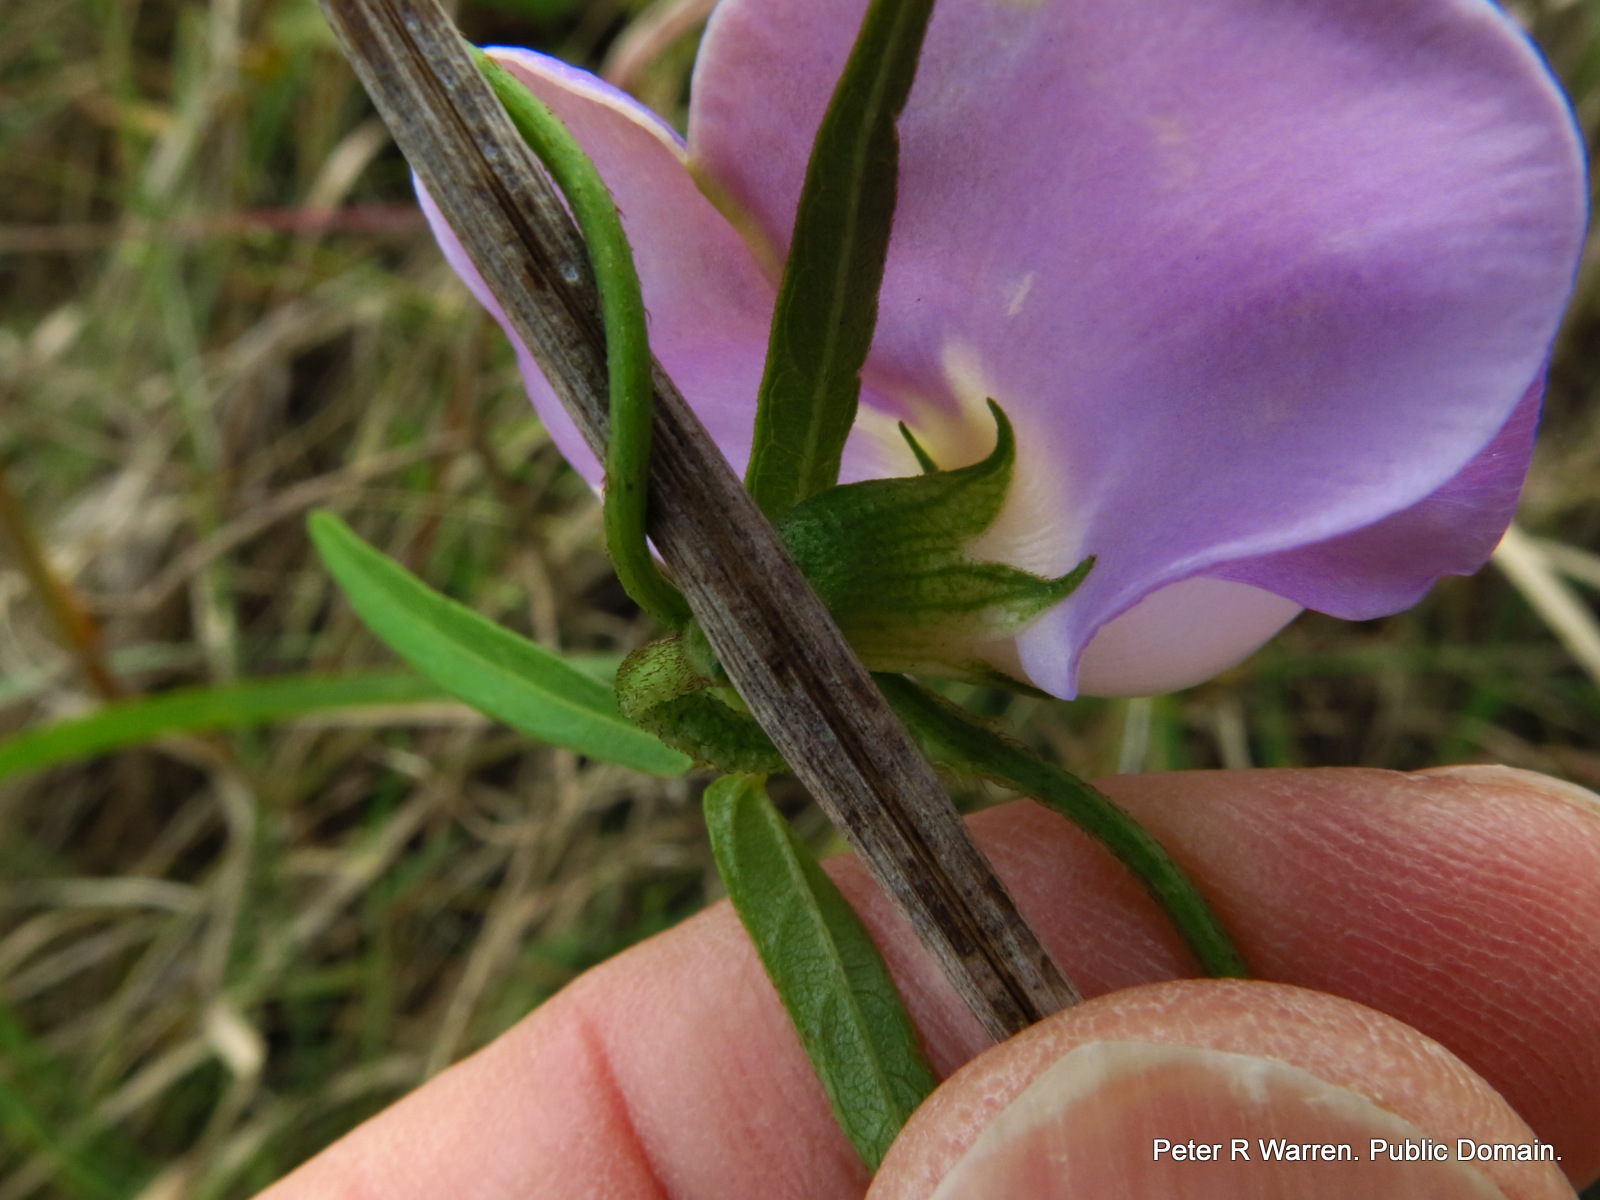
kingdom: Plantae
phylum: Tracheophyta
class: Magnoliopsida
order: Fabales
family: Fabaceae
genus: Vigna
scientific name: Vigna vexillata
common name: Zombi pea
